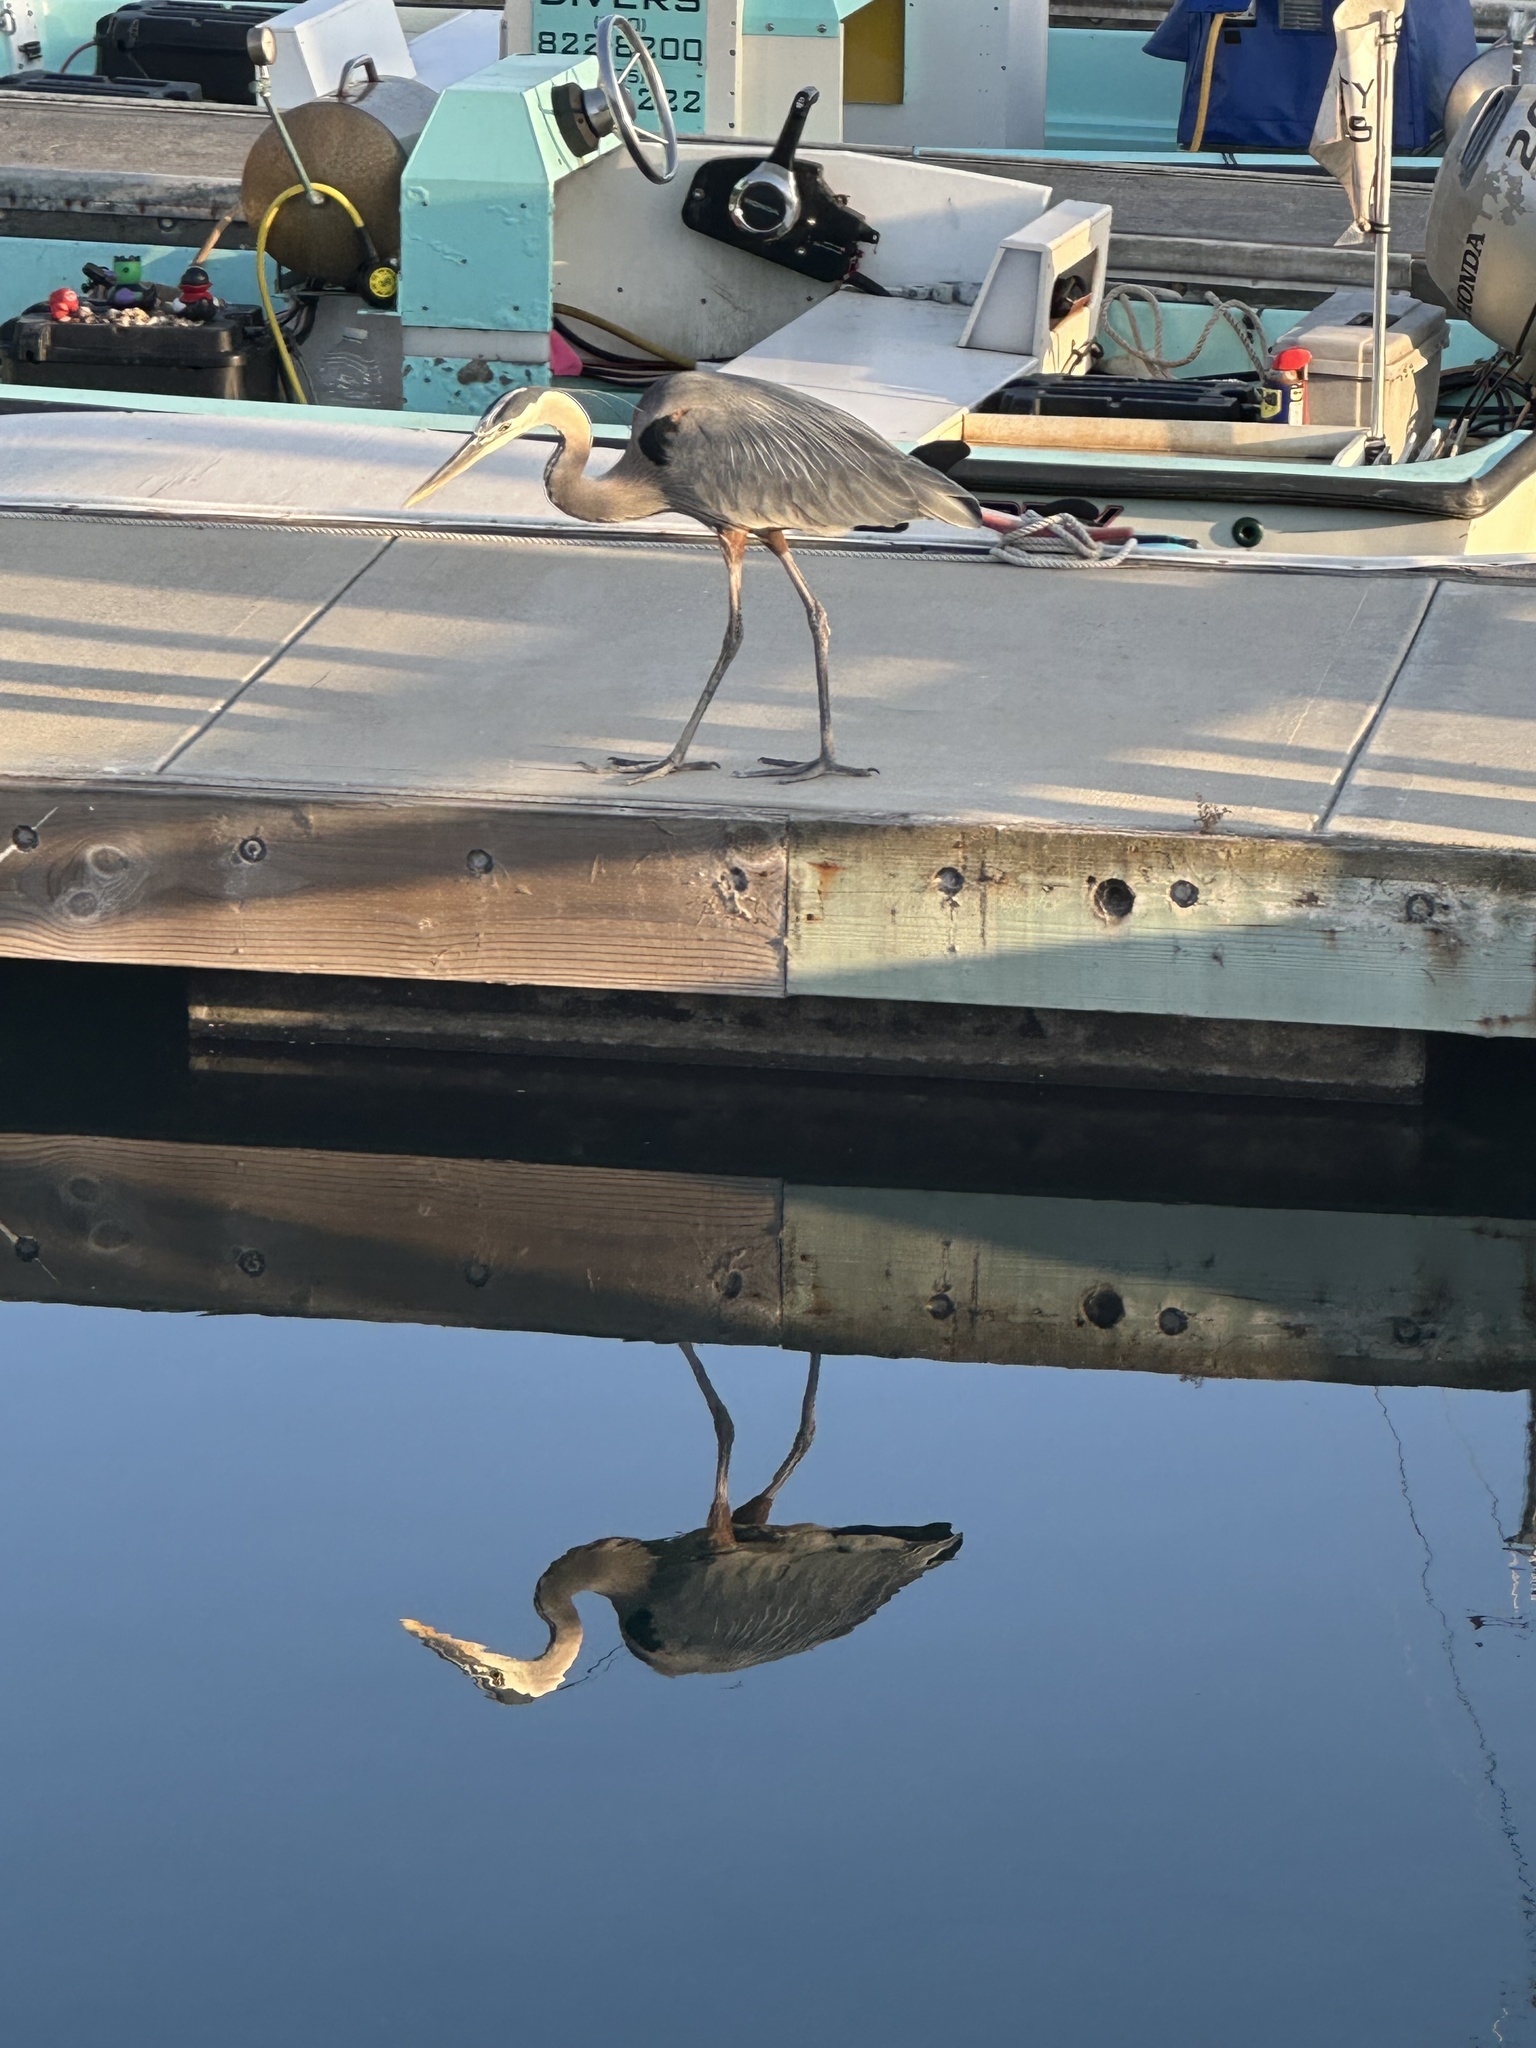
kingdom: Animalia
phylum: Chordata
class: Aves
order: Pelecaniformes
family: Ardeidae
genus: Ardea
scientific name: Ardea herodias
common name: Great blue heron
